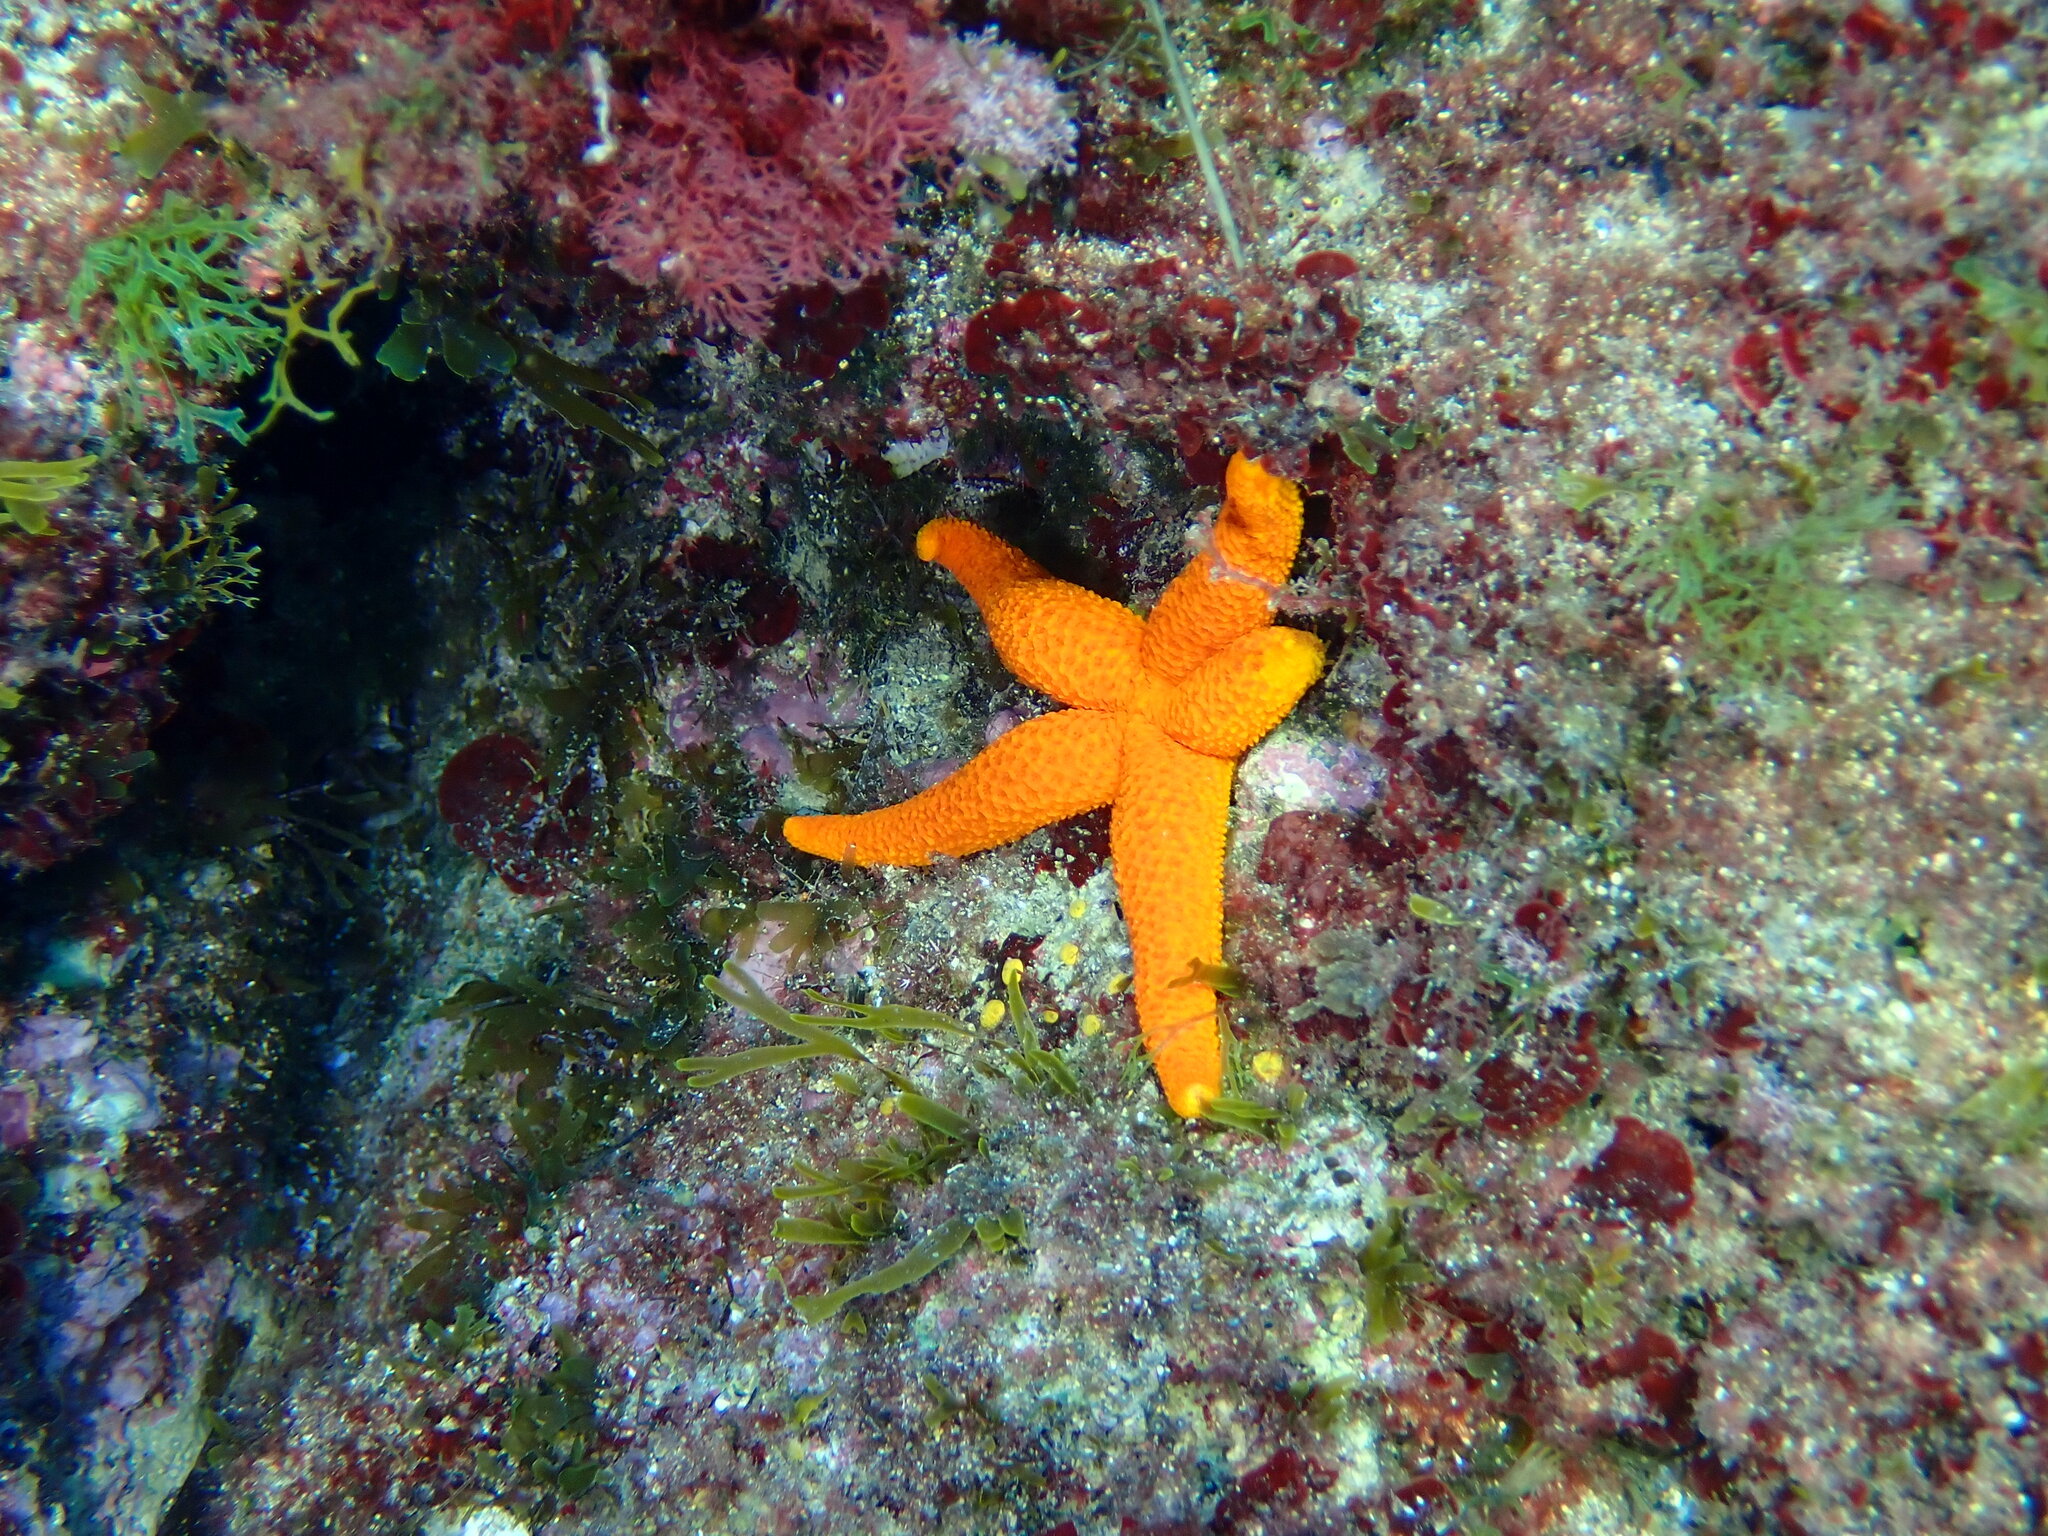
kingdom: Animalia
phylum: Echinodermata
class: Asteroidea
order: Spinulosida
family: Echinasteridae
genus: Echinaster
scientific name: Echinaster sepositus
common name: Red starfish
